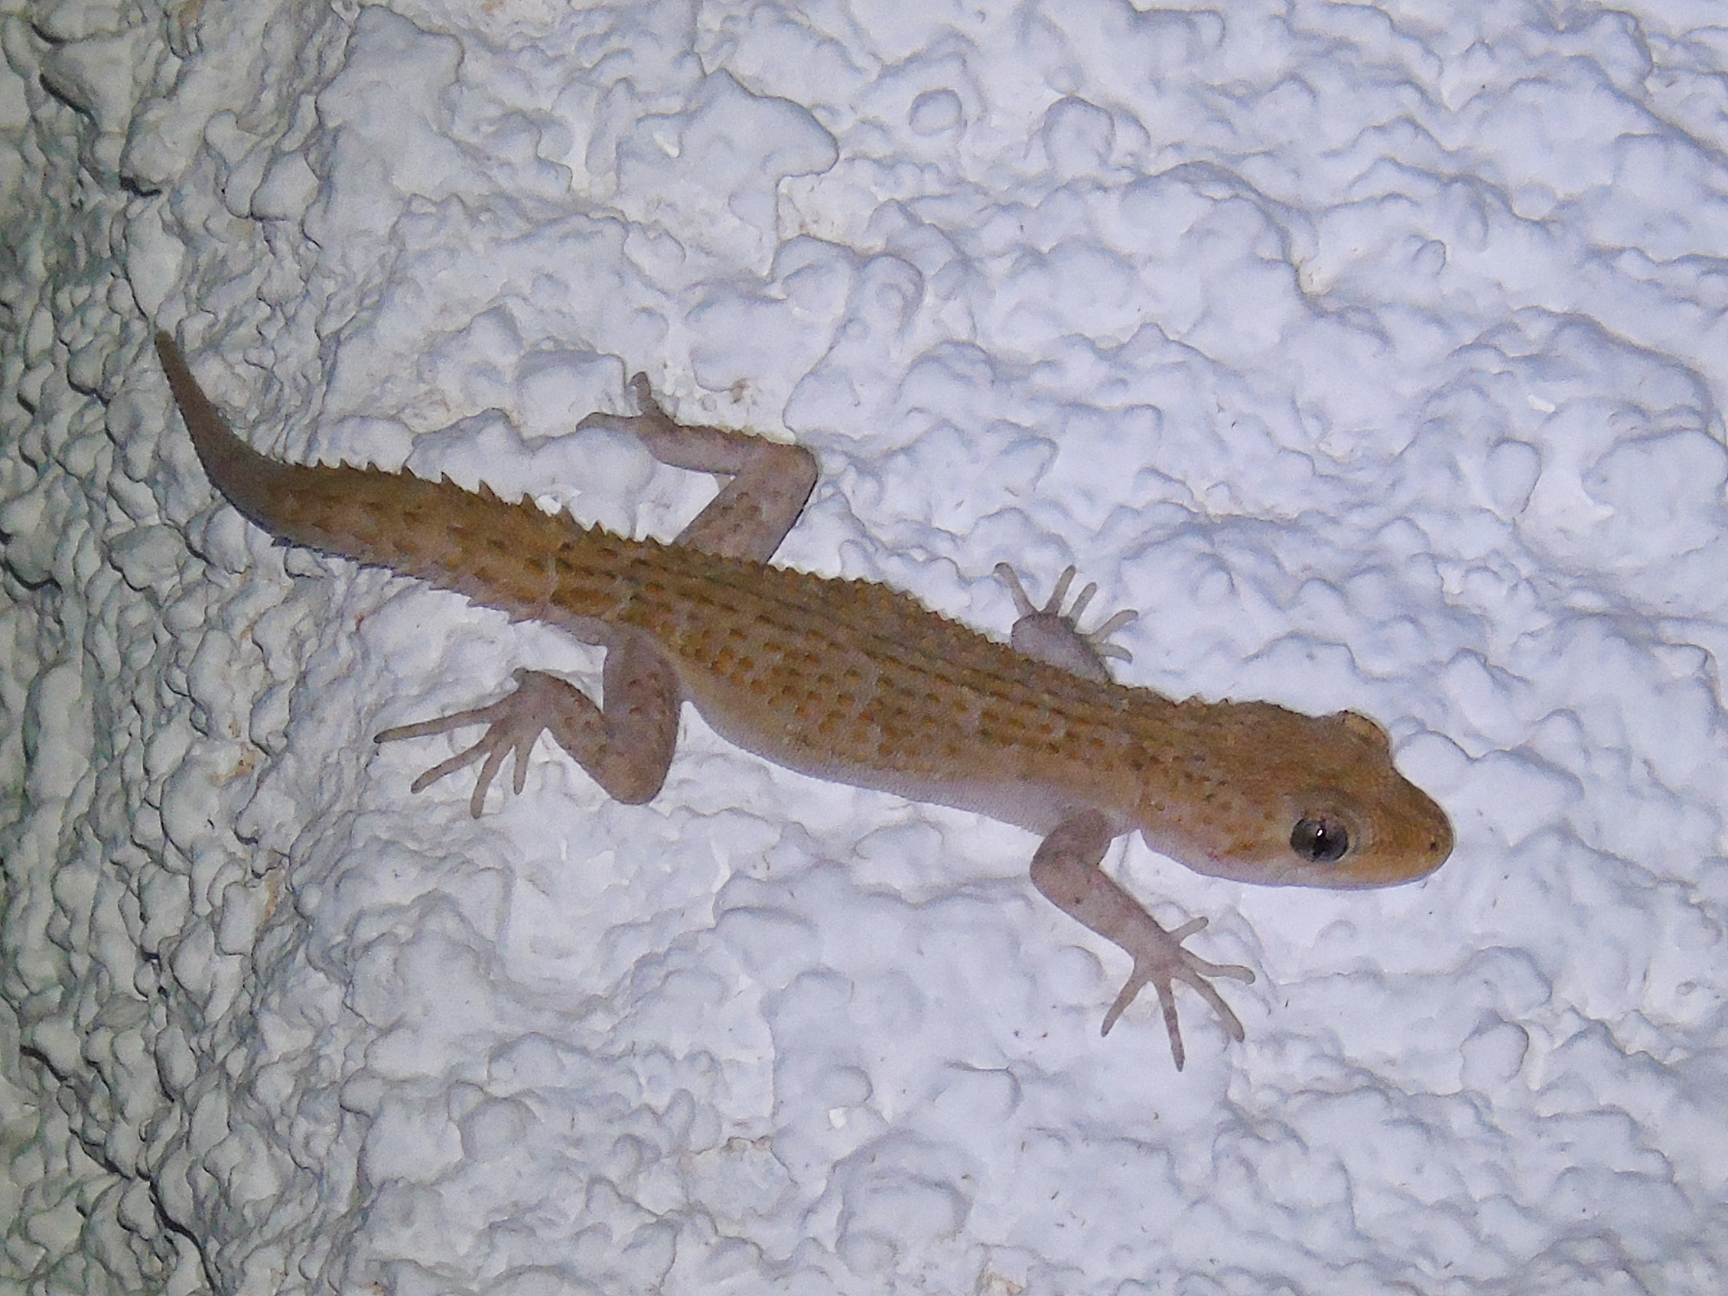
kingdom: Animalia
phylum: Chordata
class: Squamata
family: Gekkonidae
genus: Mediodactylus
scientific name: Mediodactylus kotschyi
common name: Kotschy's gecko
